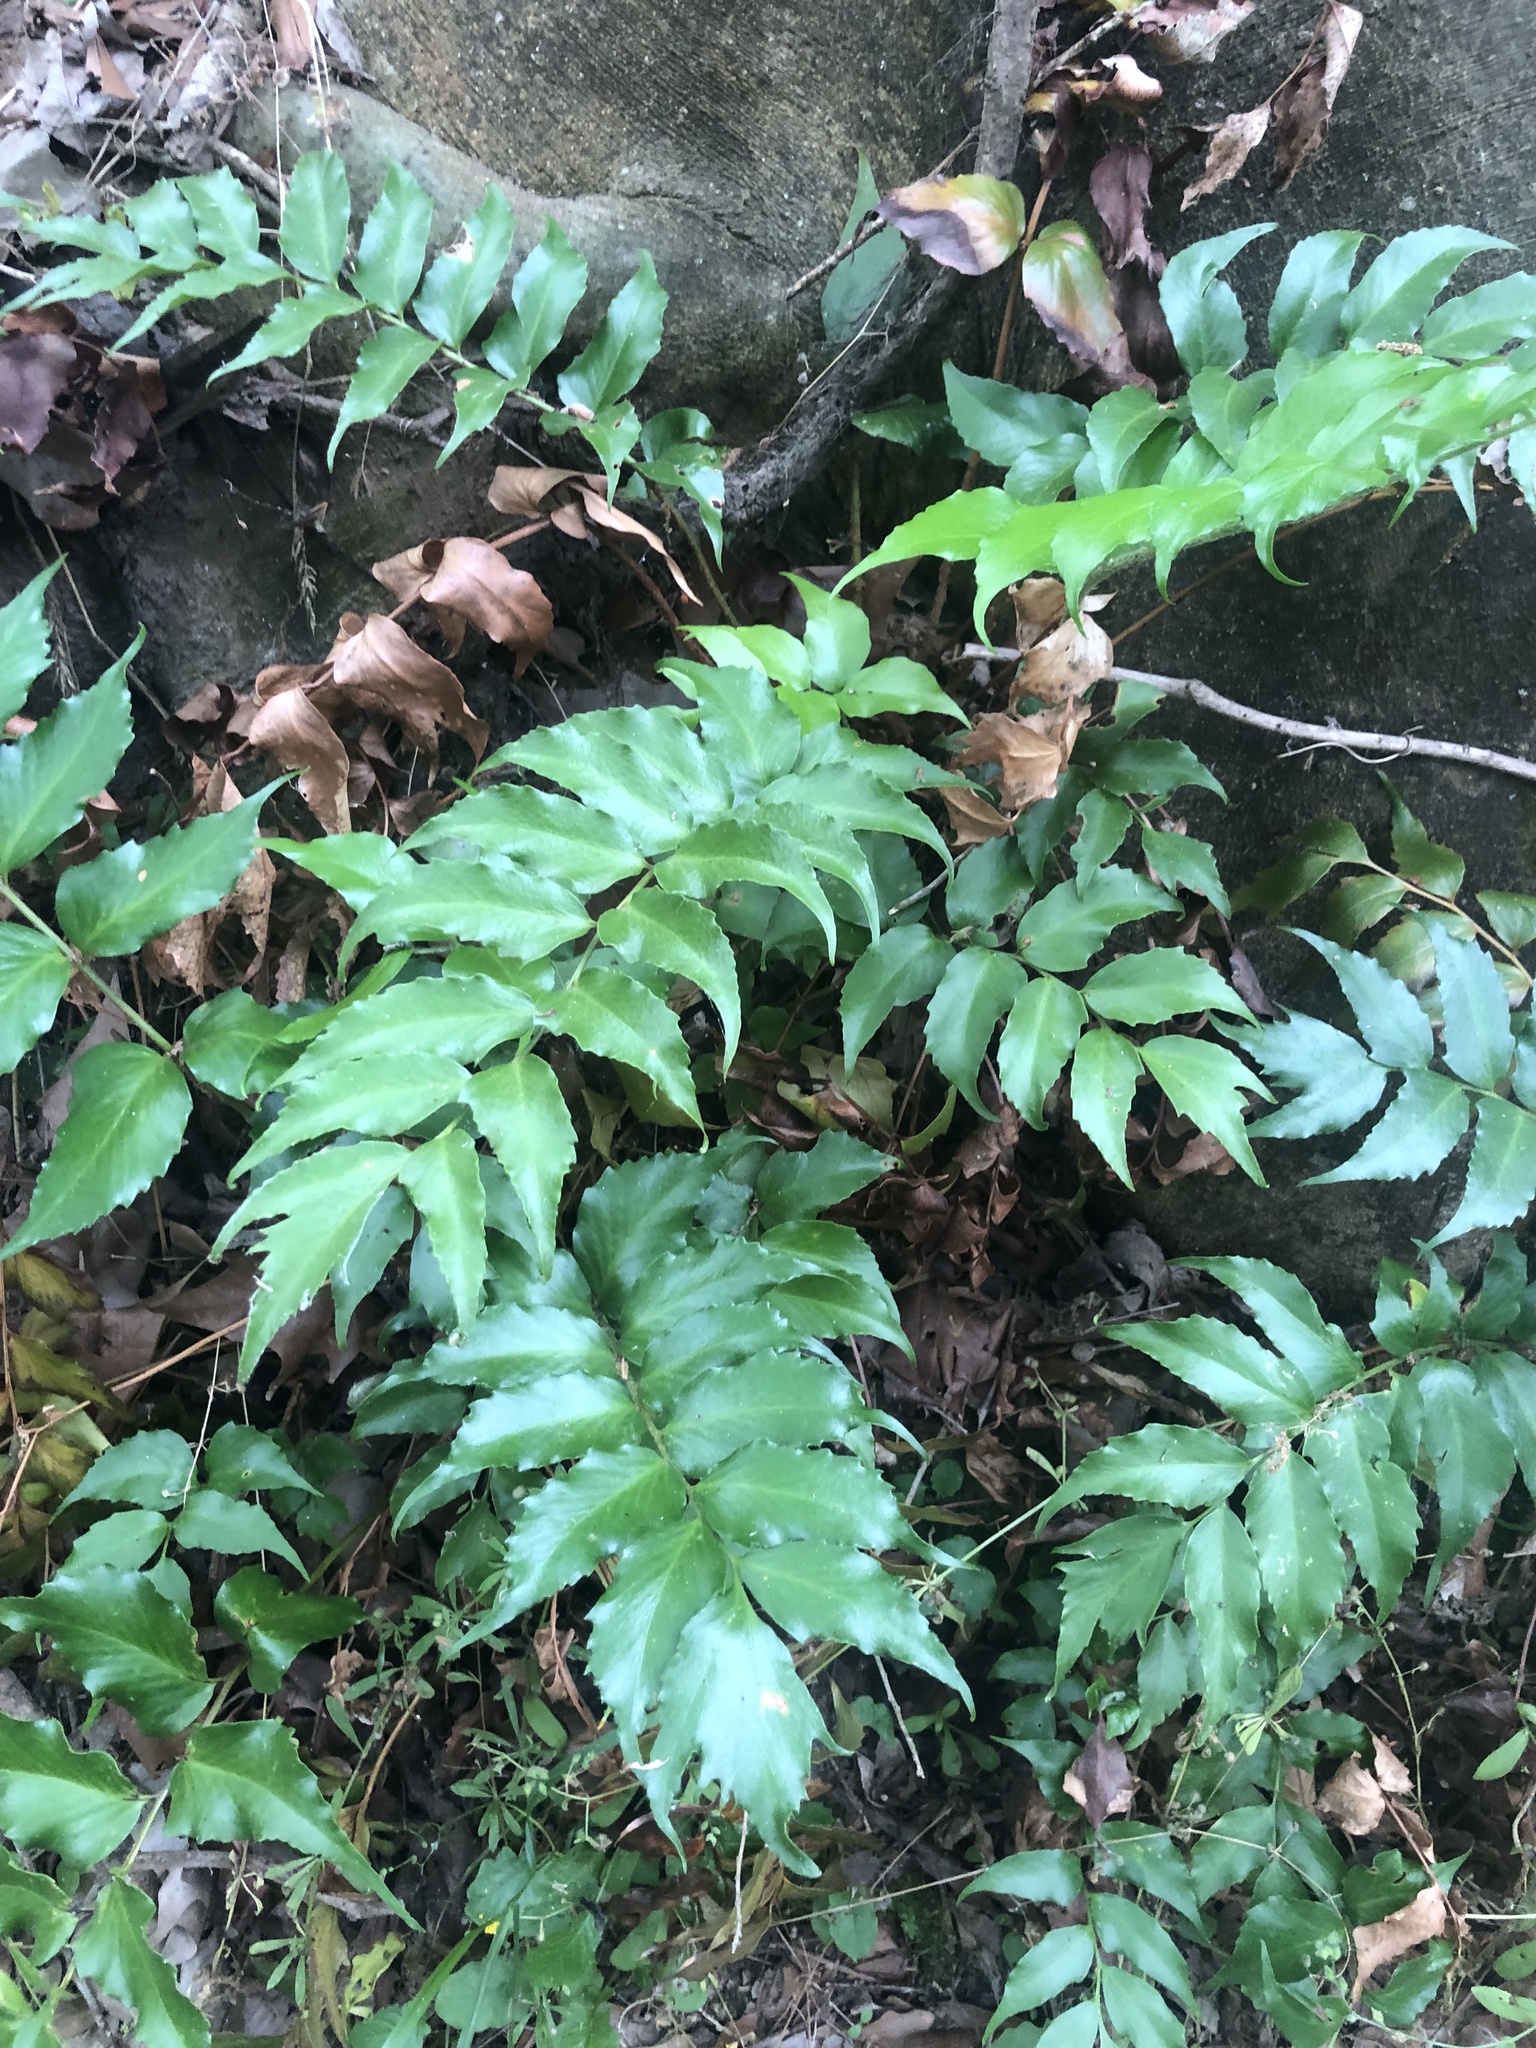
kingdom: Plantae
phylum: Tracheophyta
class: Polypodiopsida
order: Polypodiales
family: Dryopteridaceae
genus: Cyrtomium
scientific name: Cyrtomium falcatum
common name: House holly-fern
